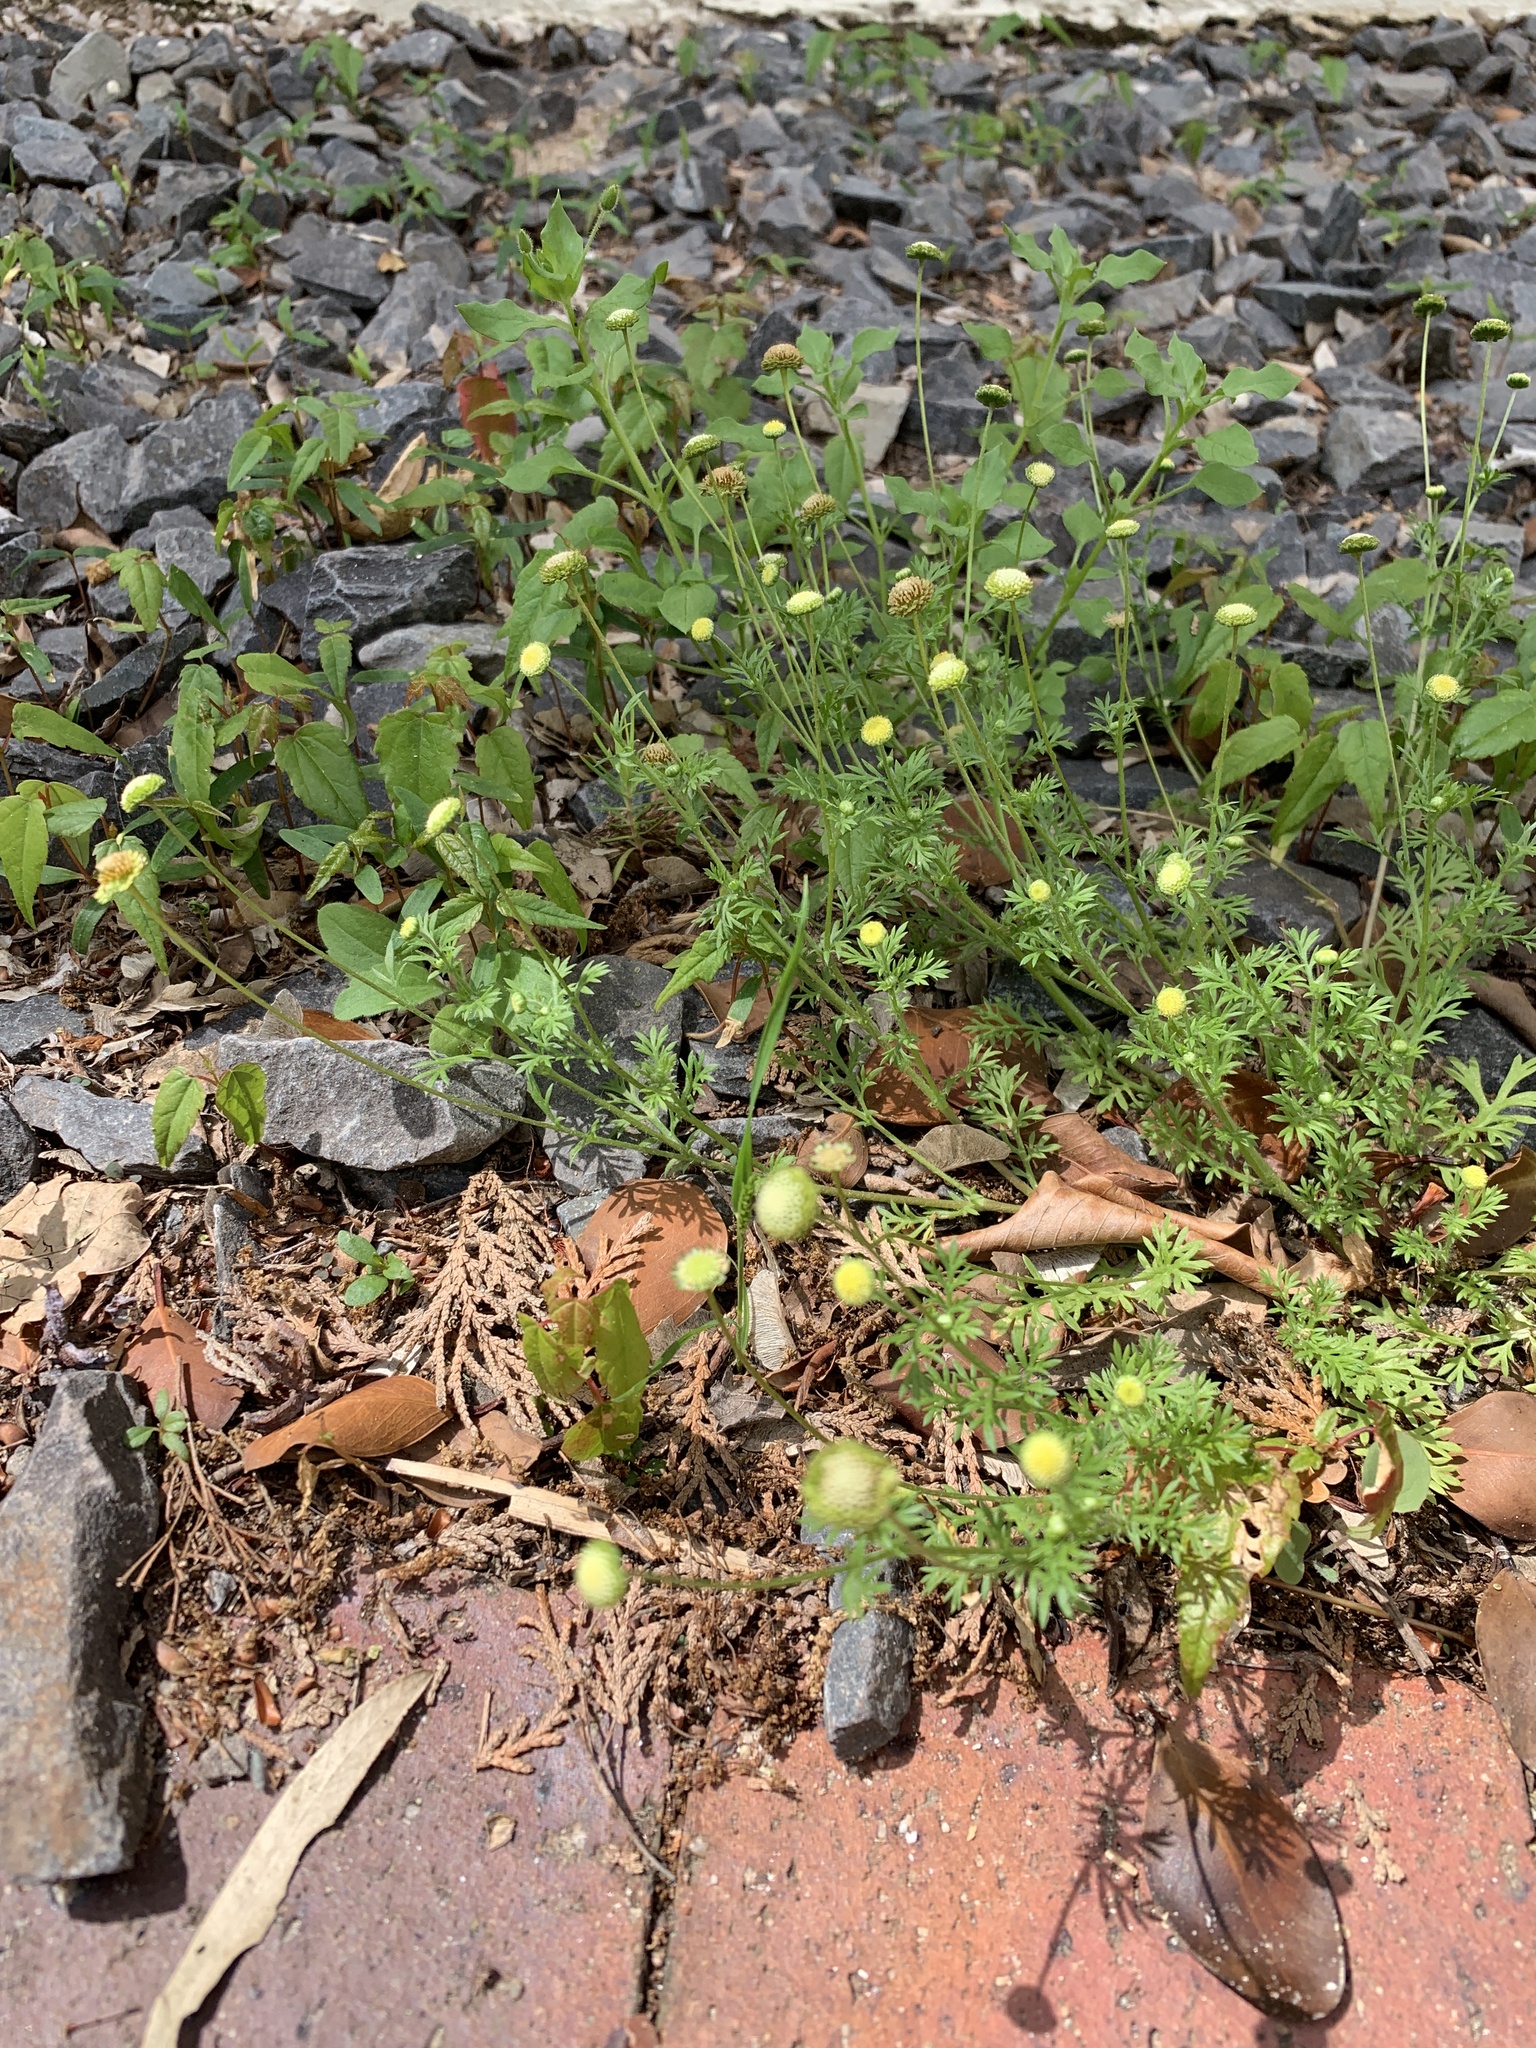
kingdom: Plantae
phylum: Tracheophyta
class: Magnoliopsida
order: Asterales
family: Asteraceae
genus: Cotula
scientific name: Cotula australis
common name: Australian waterbuttons
